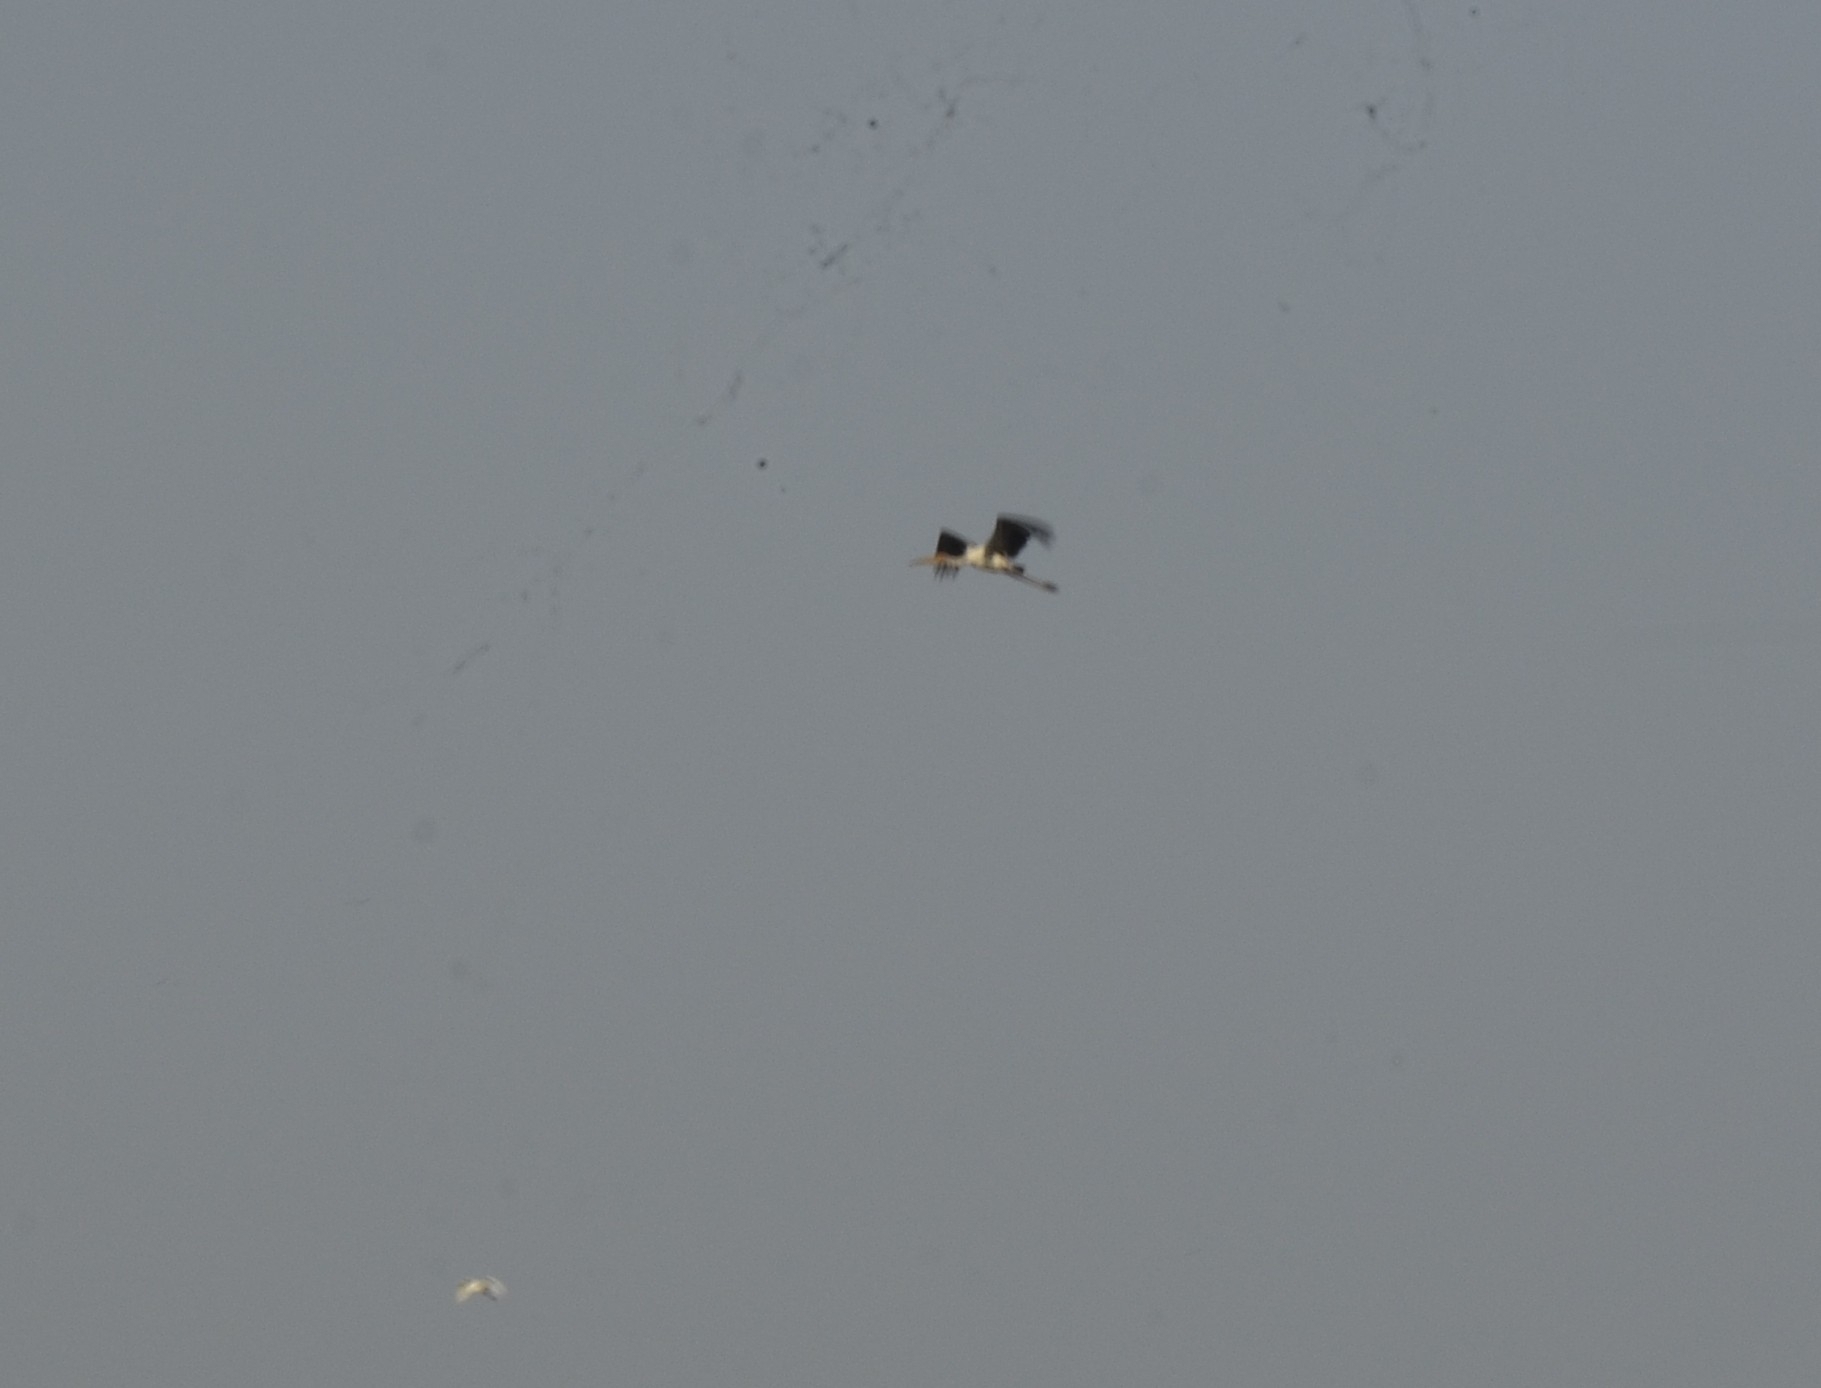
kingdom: Animalia
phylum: Chordata
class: Aves
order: Ciconiiformes
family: Ciconiidae
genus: Mycteria
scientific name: Mycteria leucocephala
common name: Painted stork
